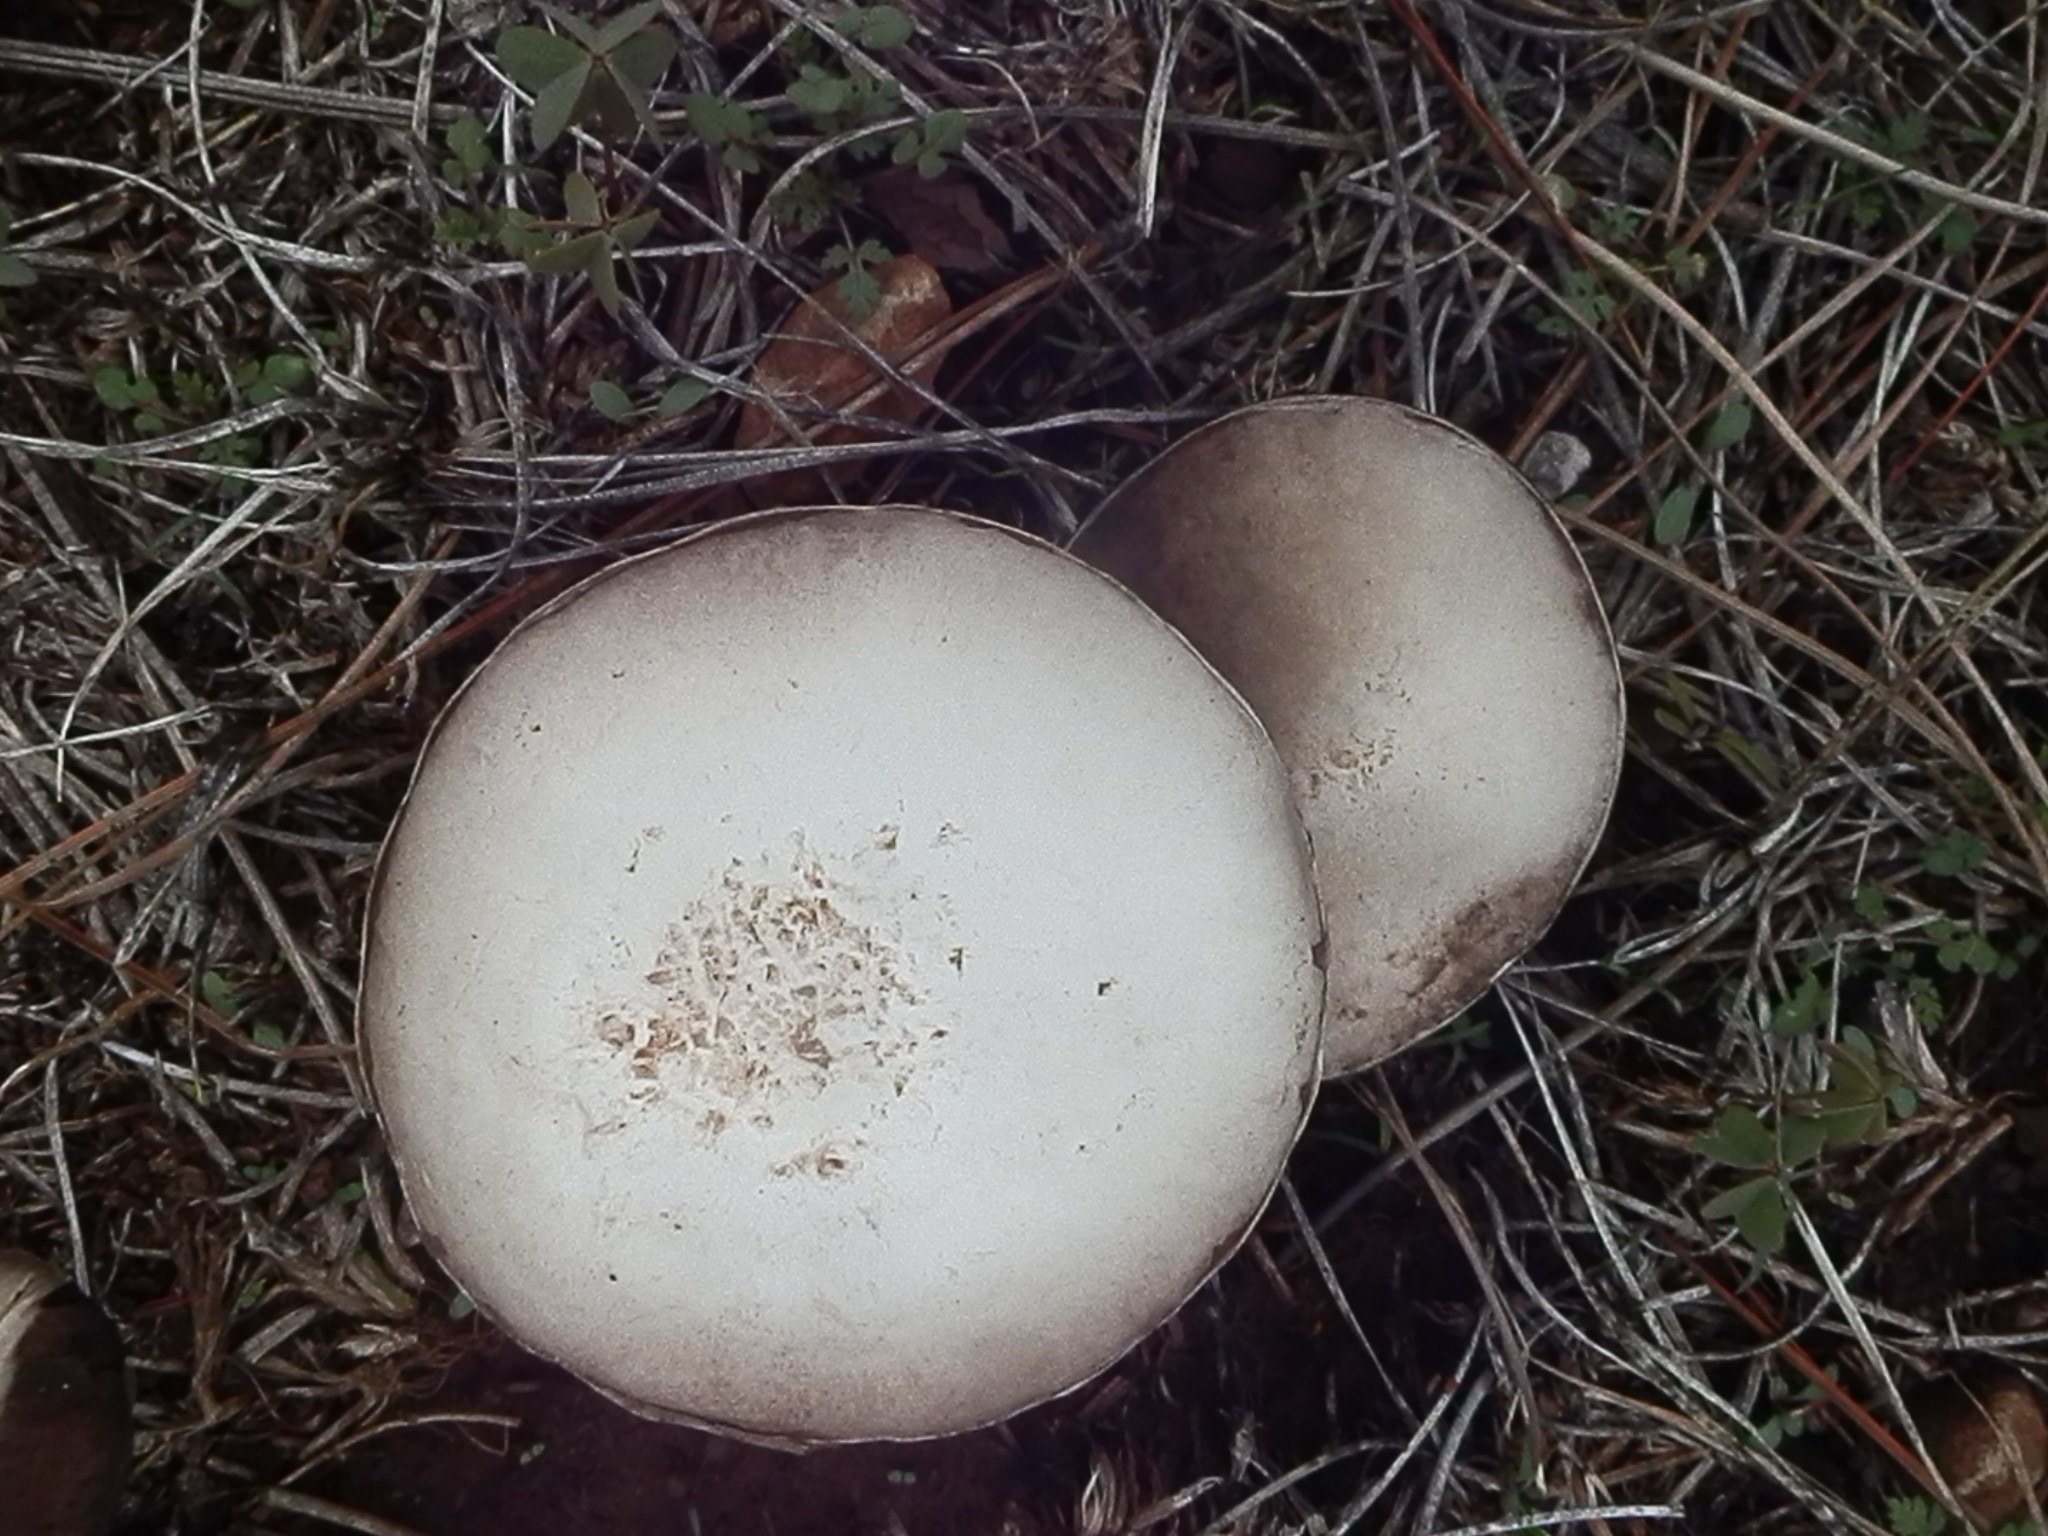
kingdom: Fungi
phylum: Basidiomycota
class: Agaricomycetes
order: Agaricales
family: Agaricaceae
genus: Agaricus
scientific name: Agaricus campestris
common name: Field mushroom
